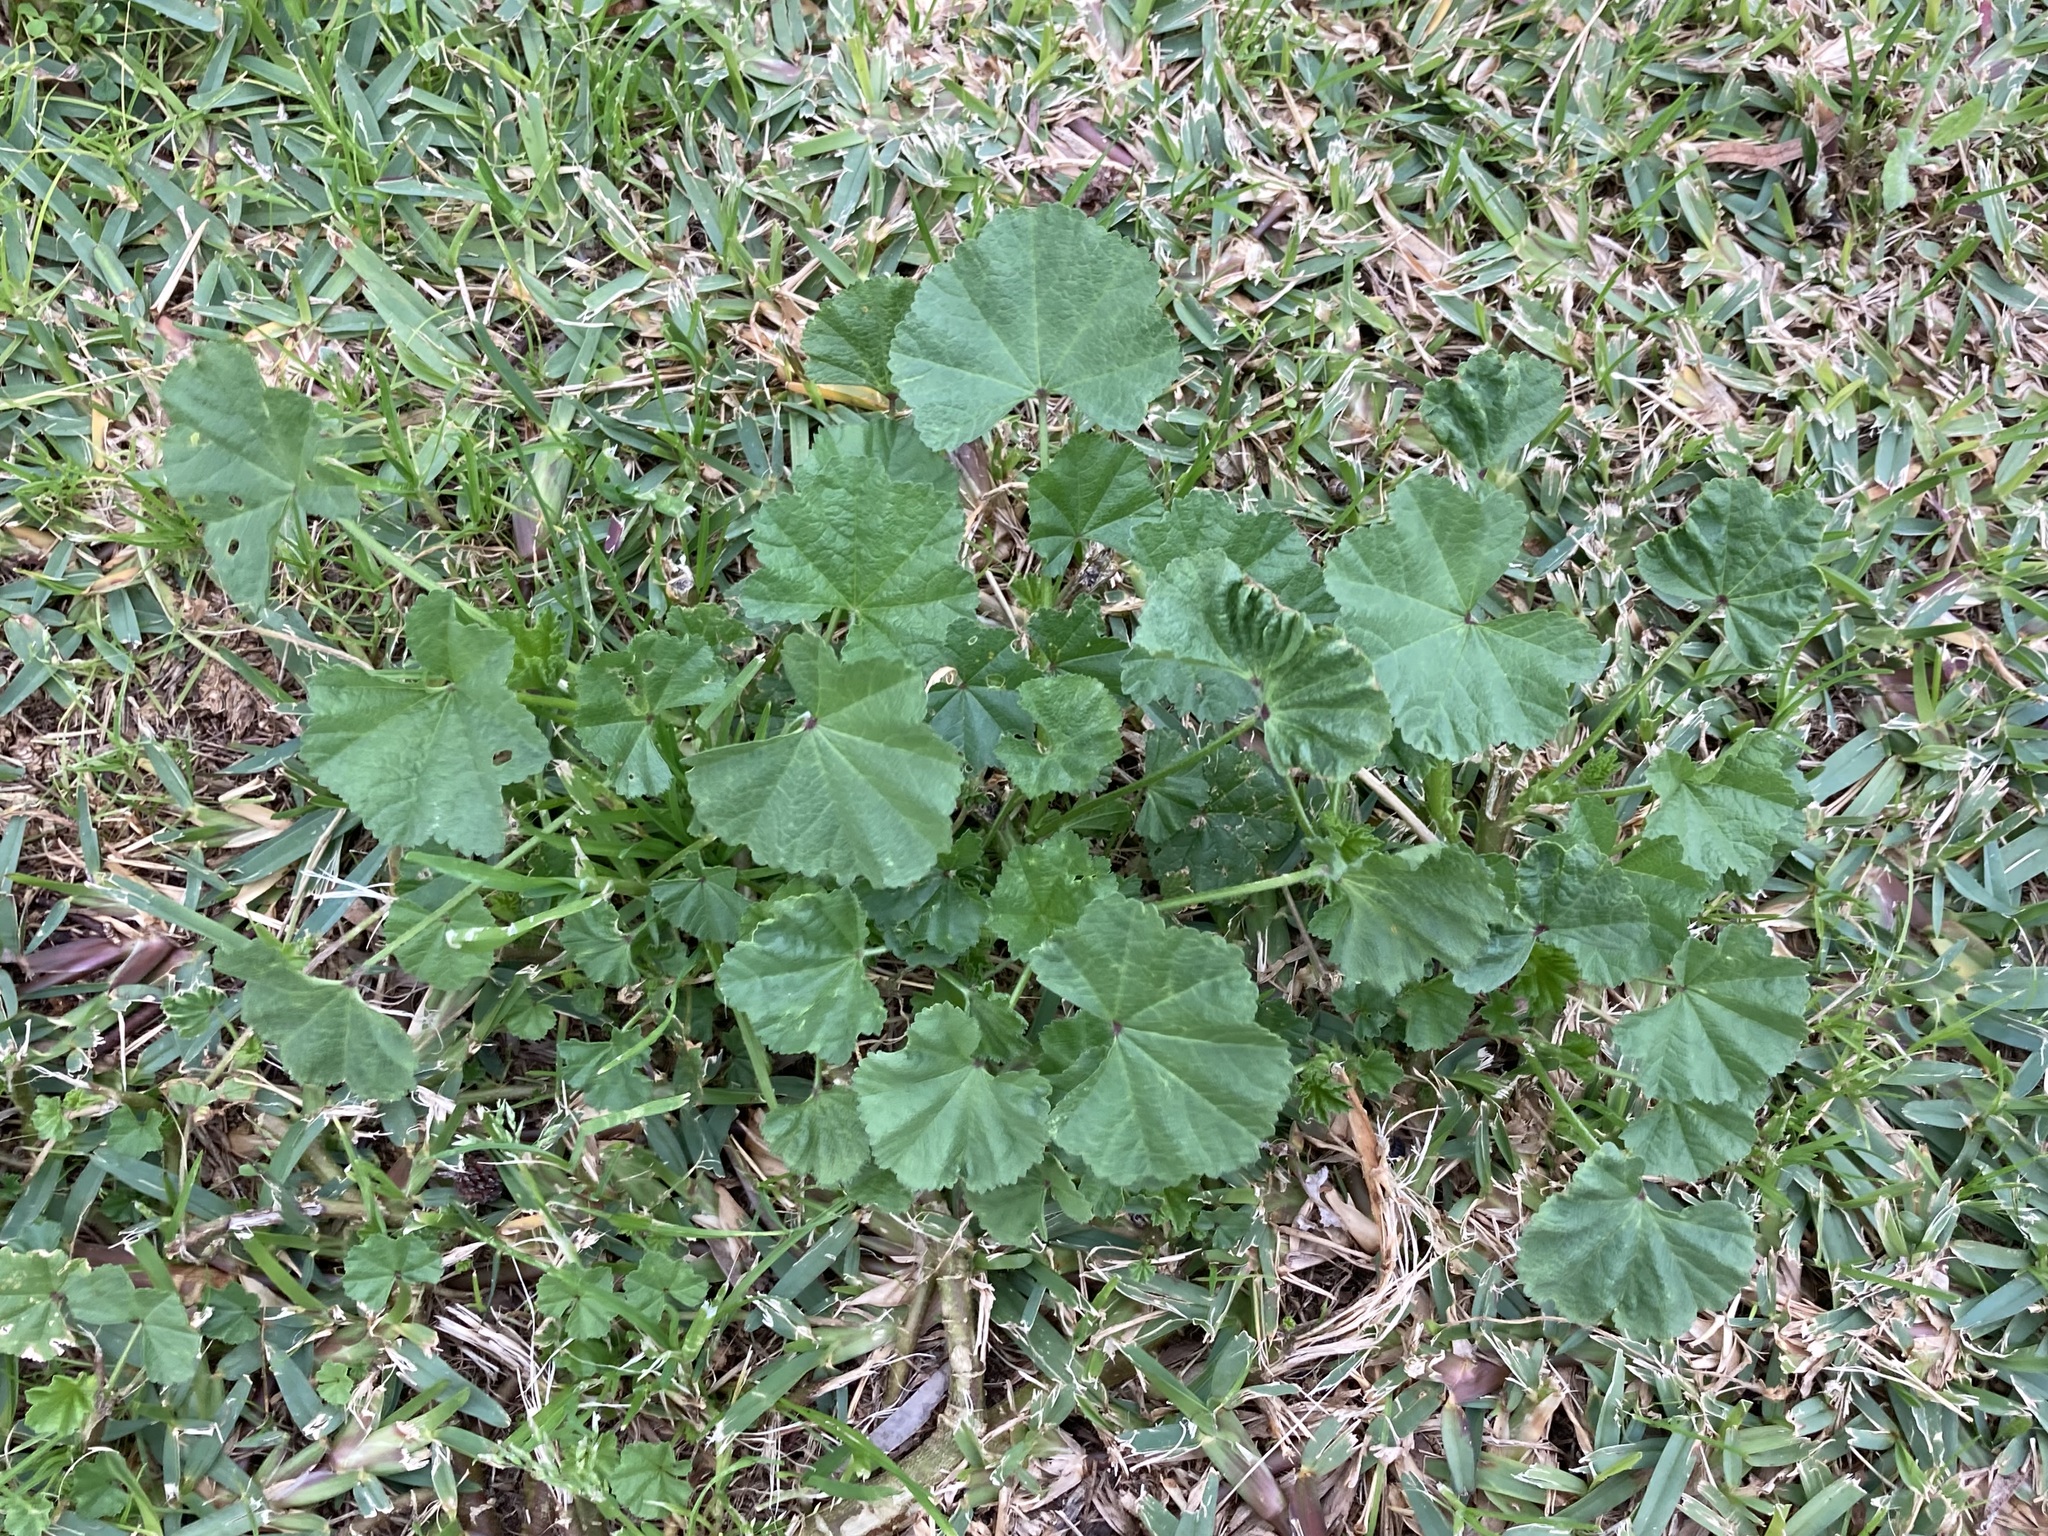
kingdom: Plantae
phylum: Tracheophyta
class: Magnoliopsida
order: Malvales
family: Malvaceae
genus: Malva
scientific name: Malva parviflora
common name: Least mallow
